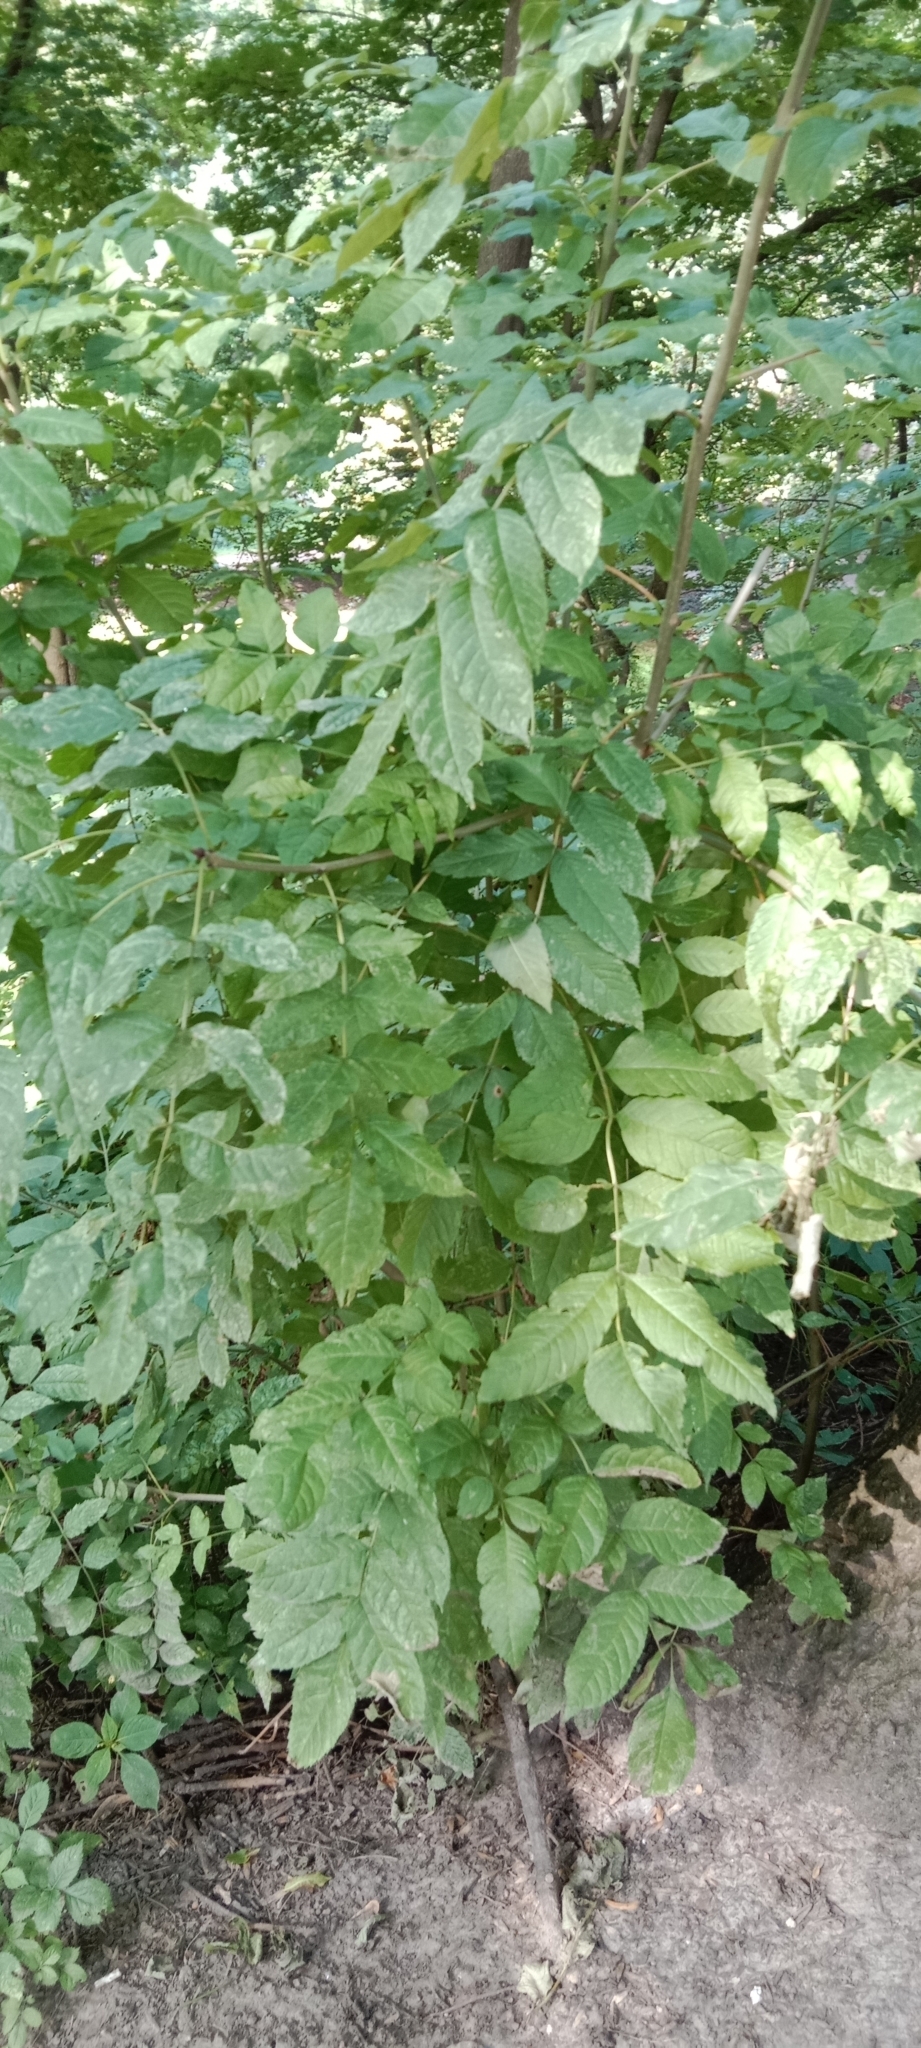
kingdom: Plantae
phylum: Tracheophyta
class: Magnoliopsida
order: Lamiales
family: Oleaceae
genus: Fraxinus
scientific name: Fraxinus excelsior
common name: European ash
